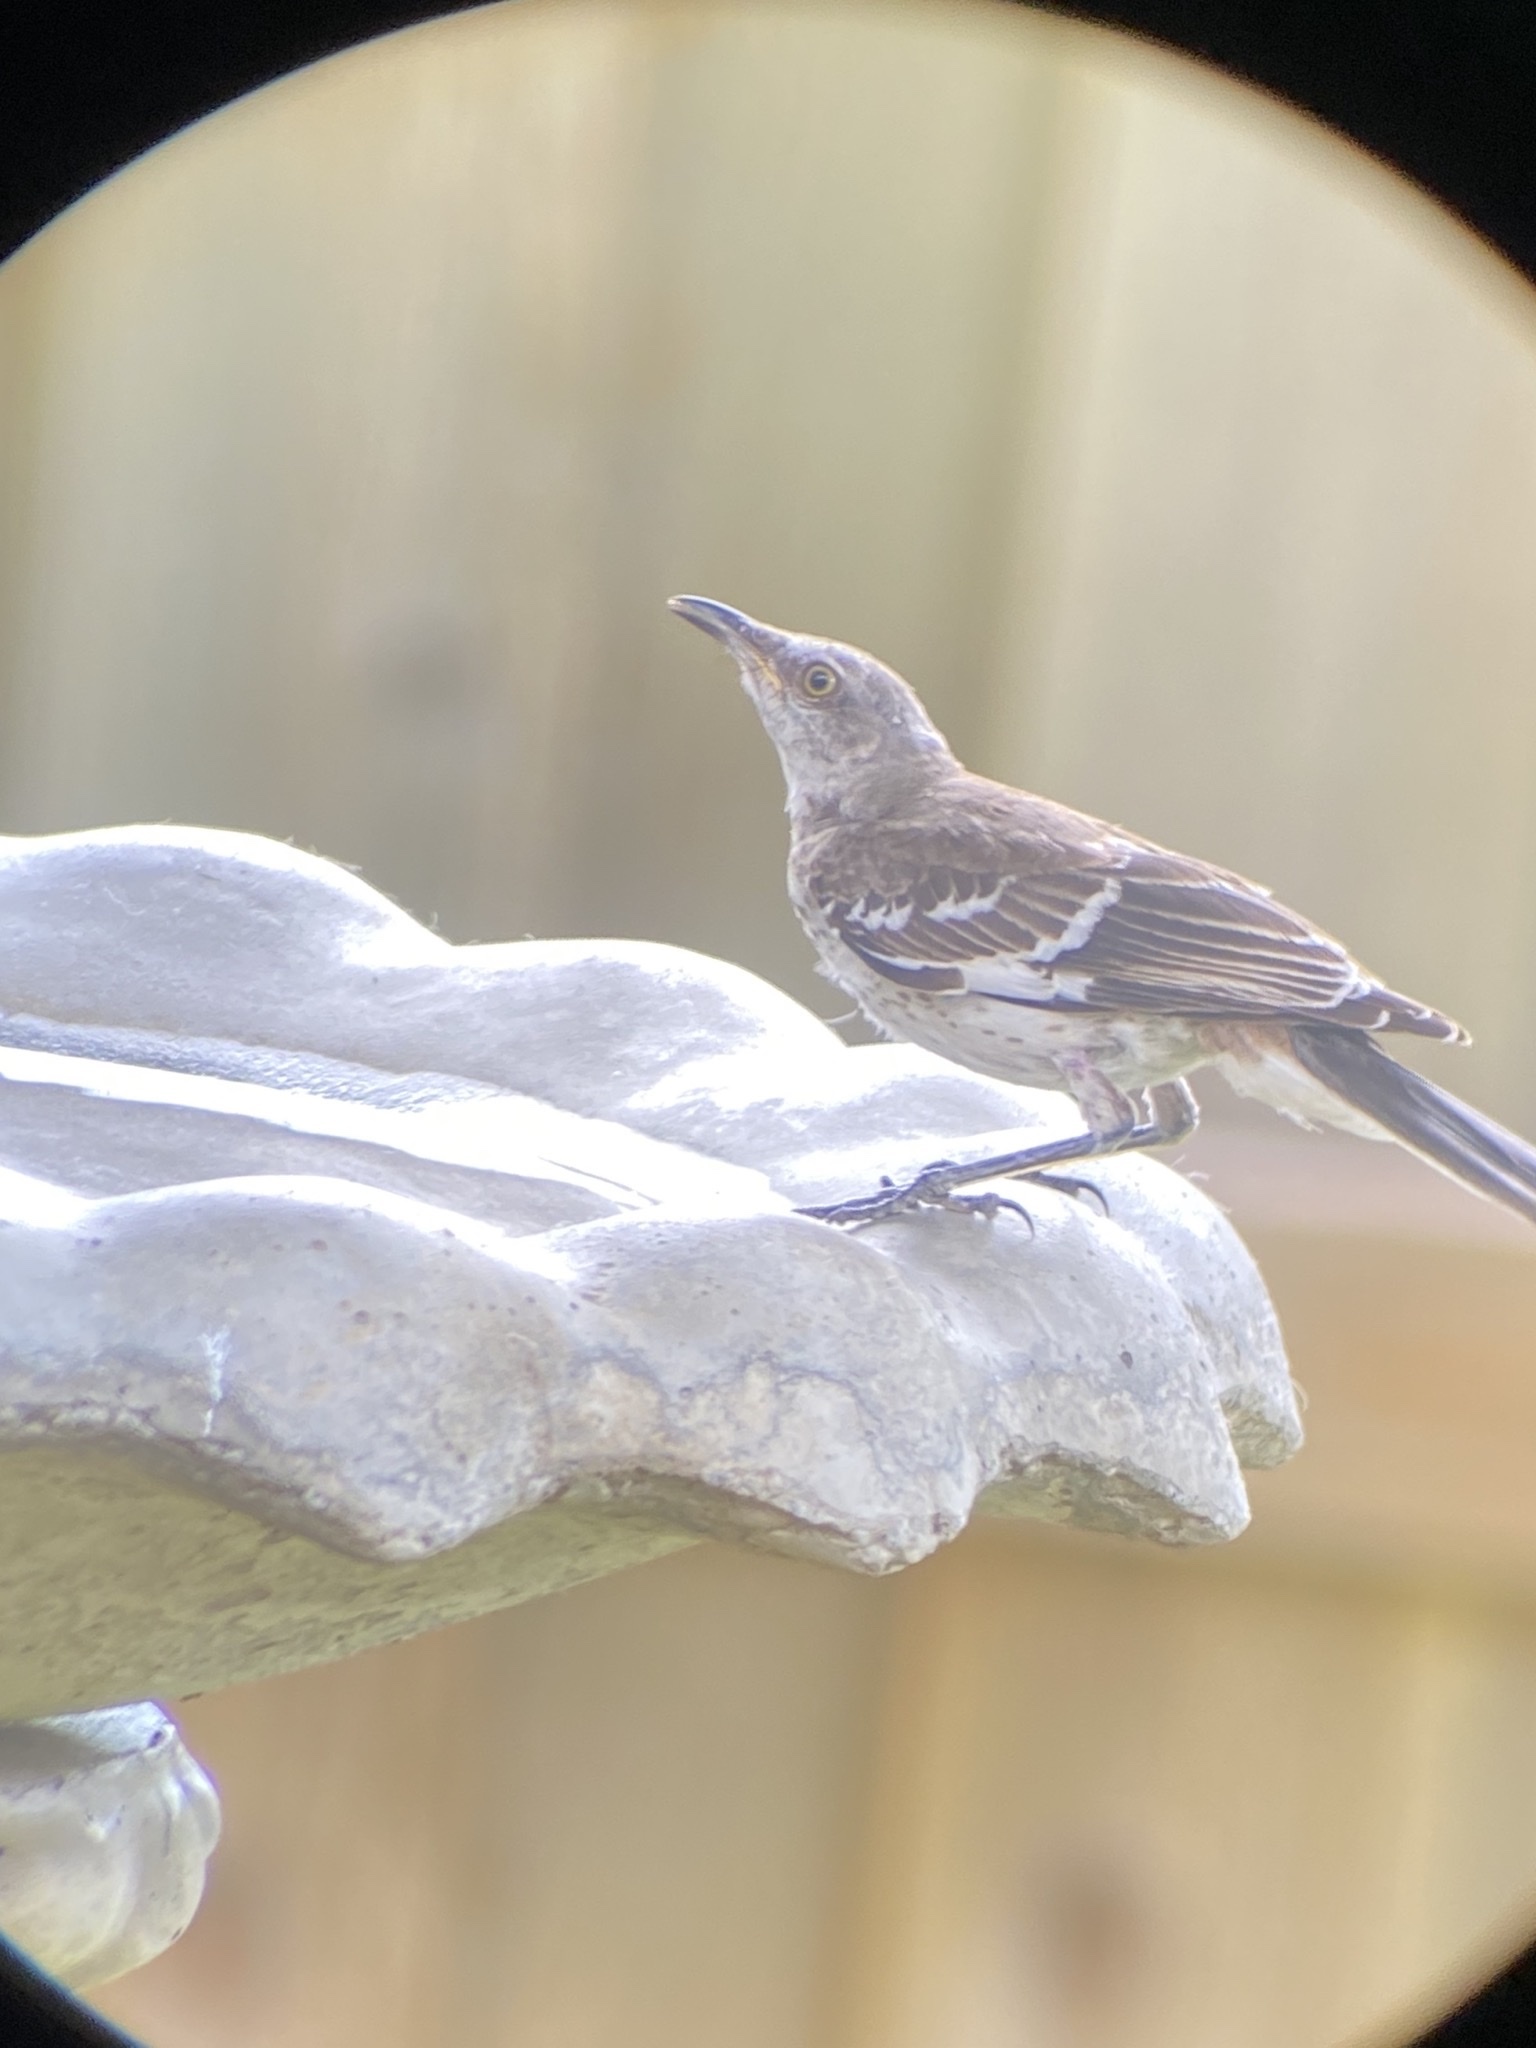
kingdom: Animalia
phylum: Chordata
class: Aves
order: Passeriformes
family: Mimidae
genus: Mimus
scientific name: Mimus polyglottos
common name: Northern mockingbird
